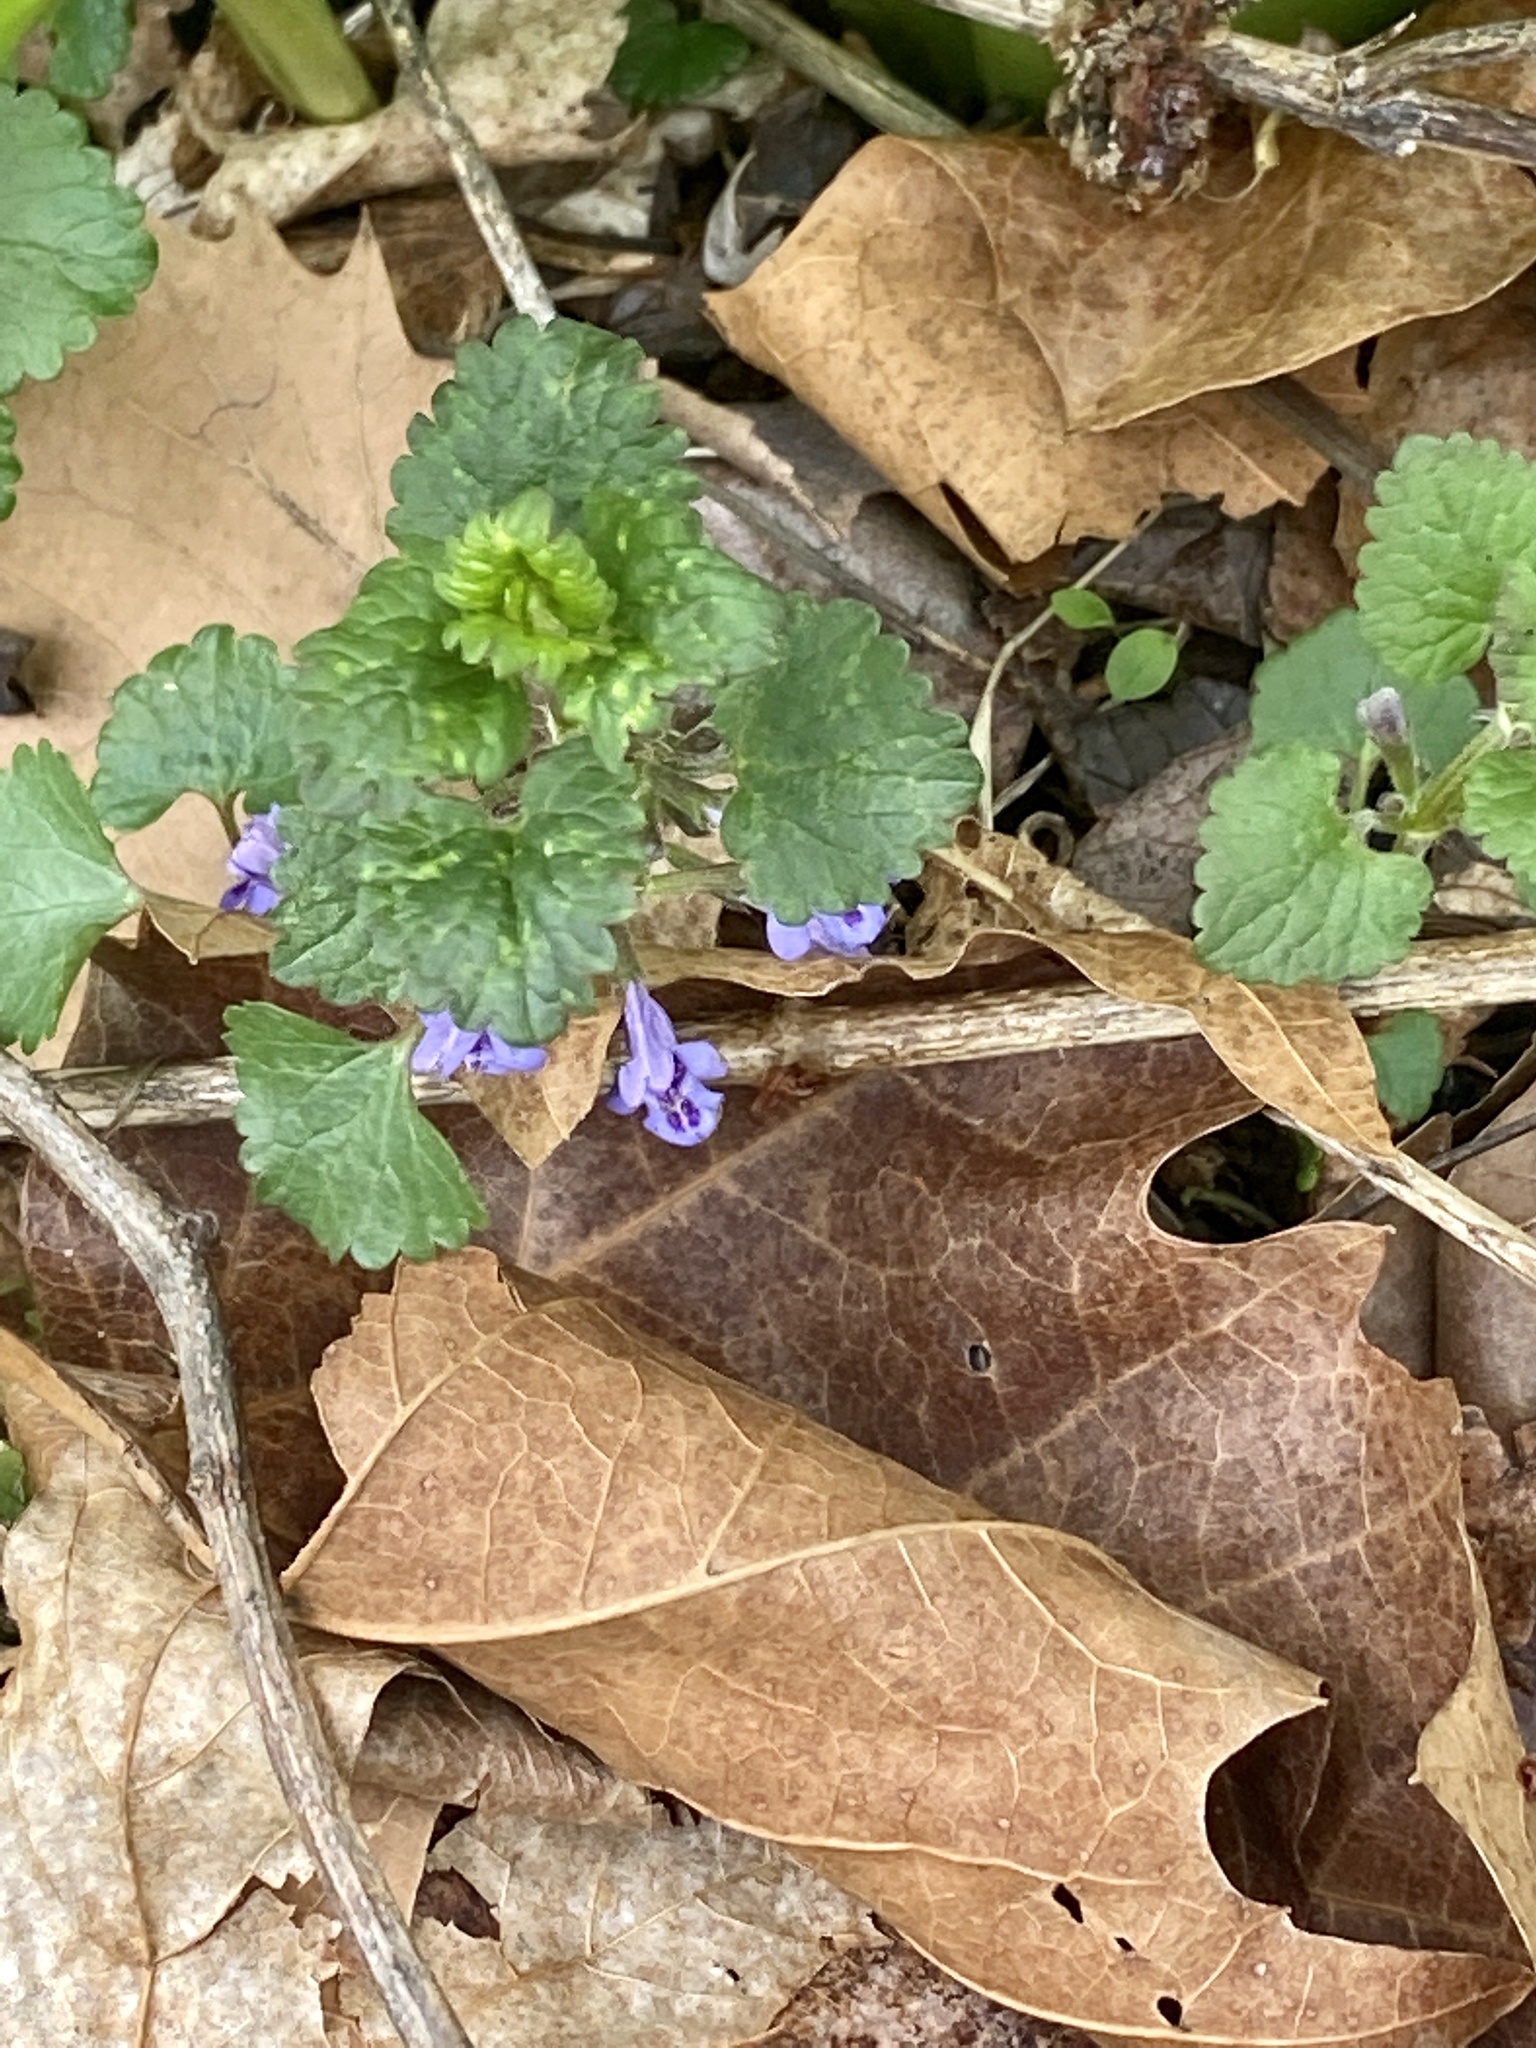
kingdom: Plantae
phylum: Tracheophyta
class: Magnoliopsida
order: Lamiales
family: Lamiaceae
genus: Glechoma
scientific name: Glechoma hederacea
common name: Ground ivy
